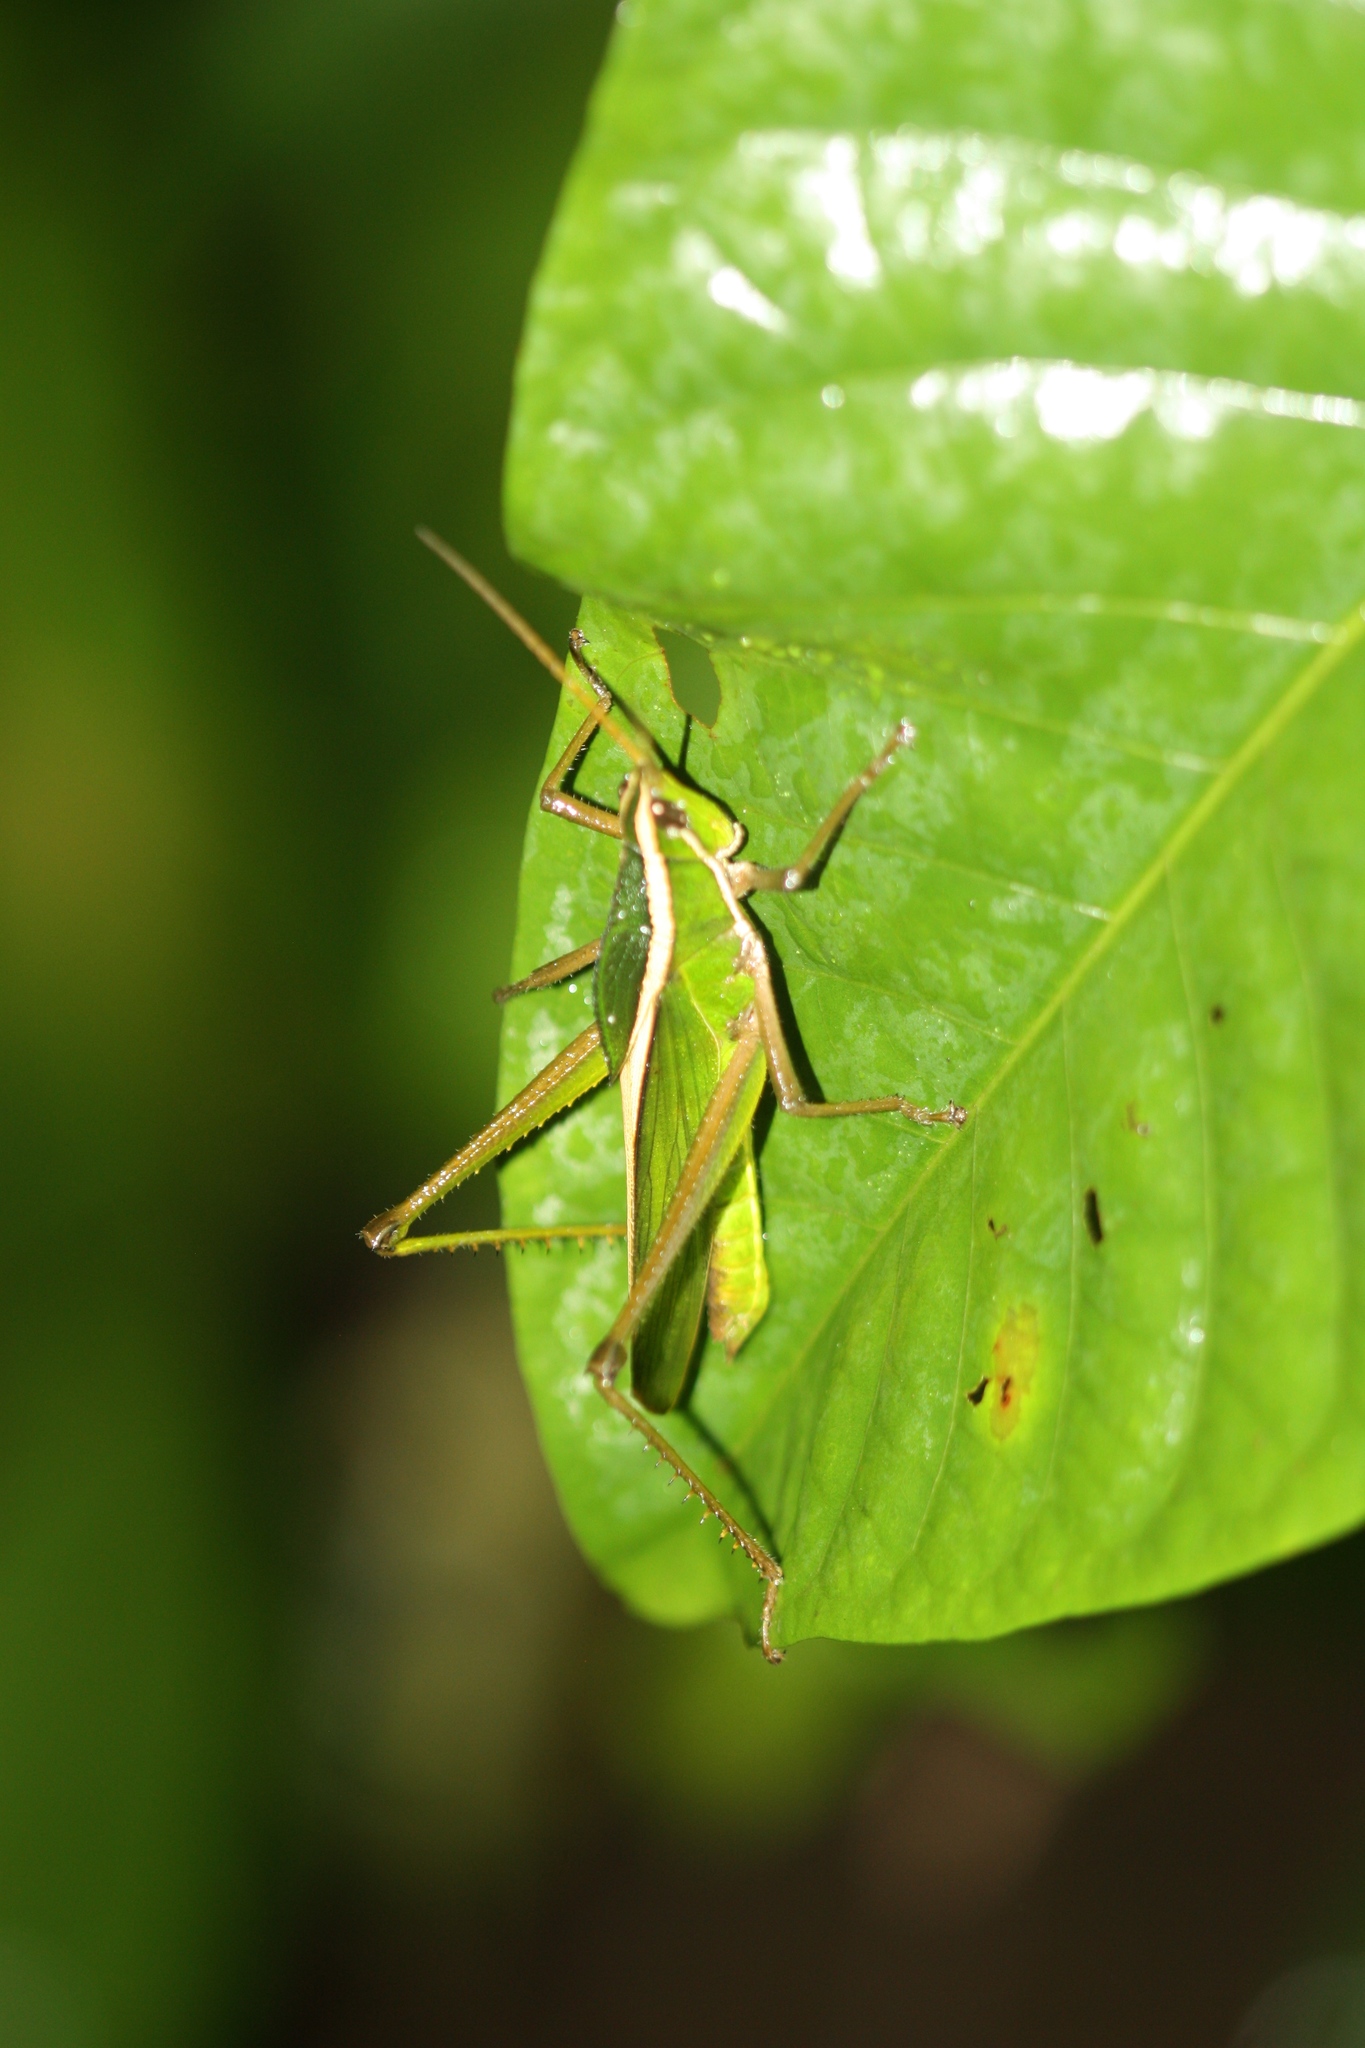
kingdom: Animalia
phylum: Arthropoda
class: Insecta
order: Orthoptera
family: Romaleidae
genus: Prionolopha
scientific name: Prionolopha serrata
